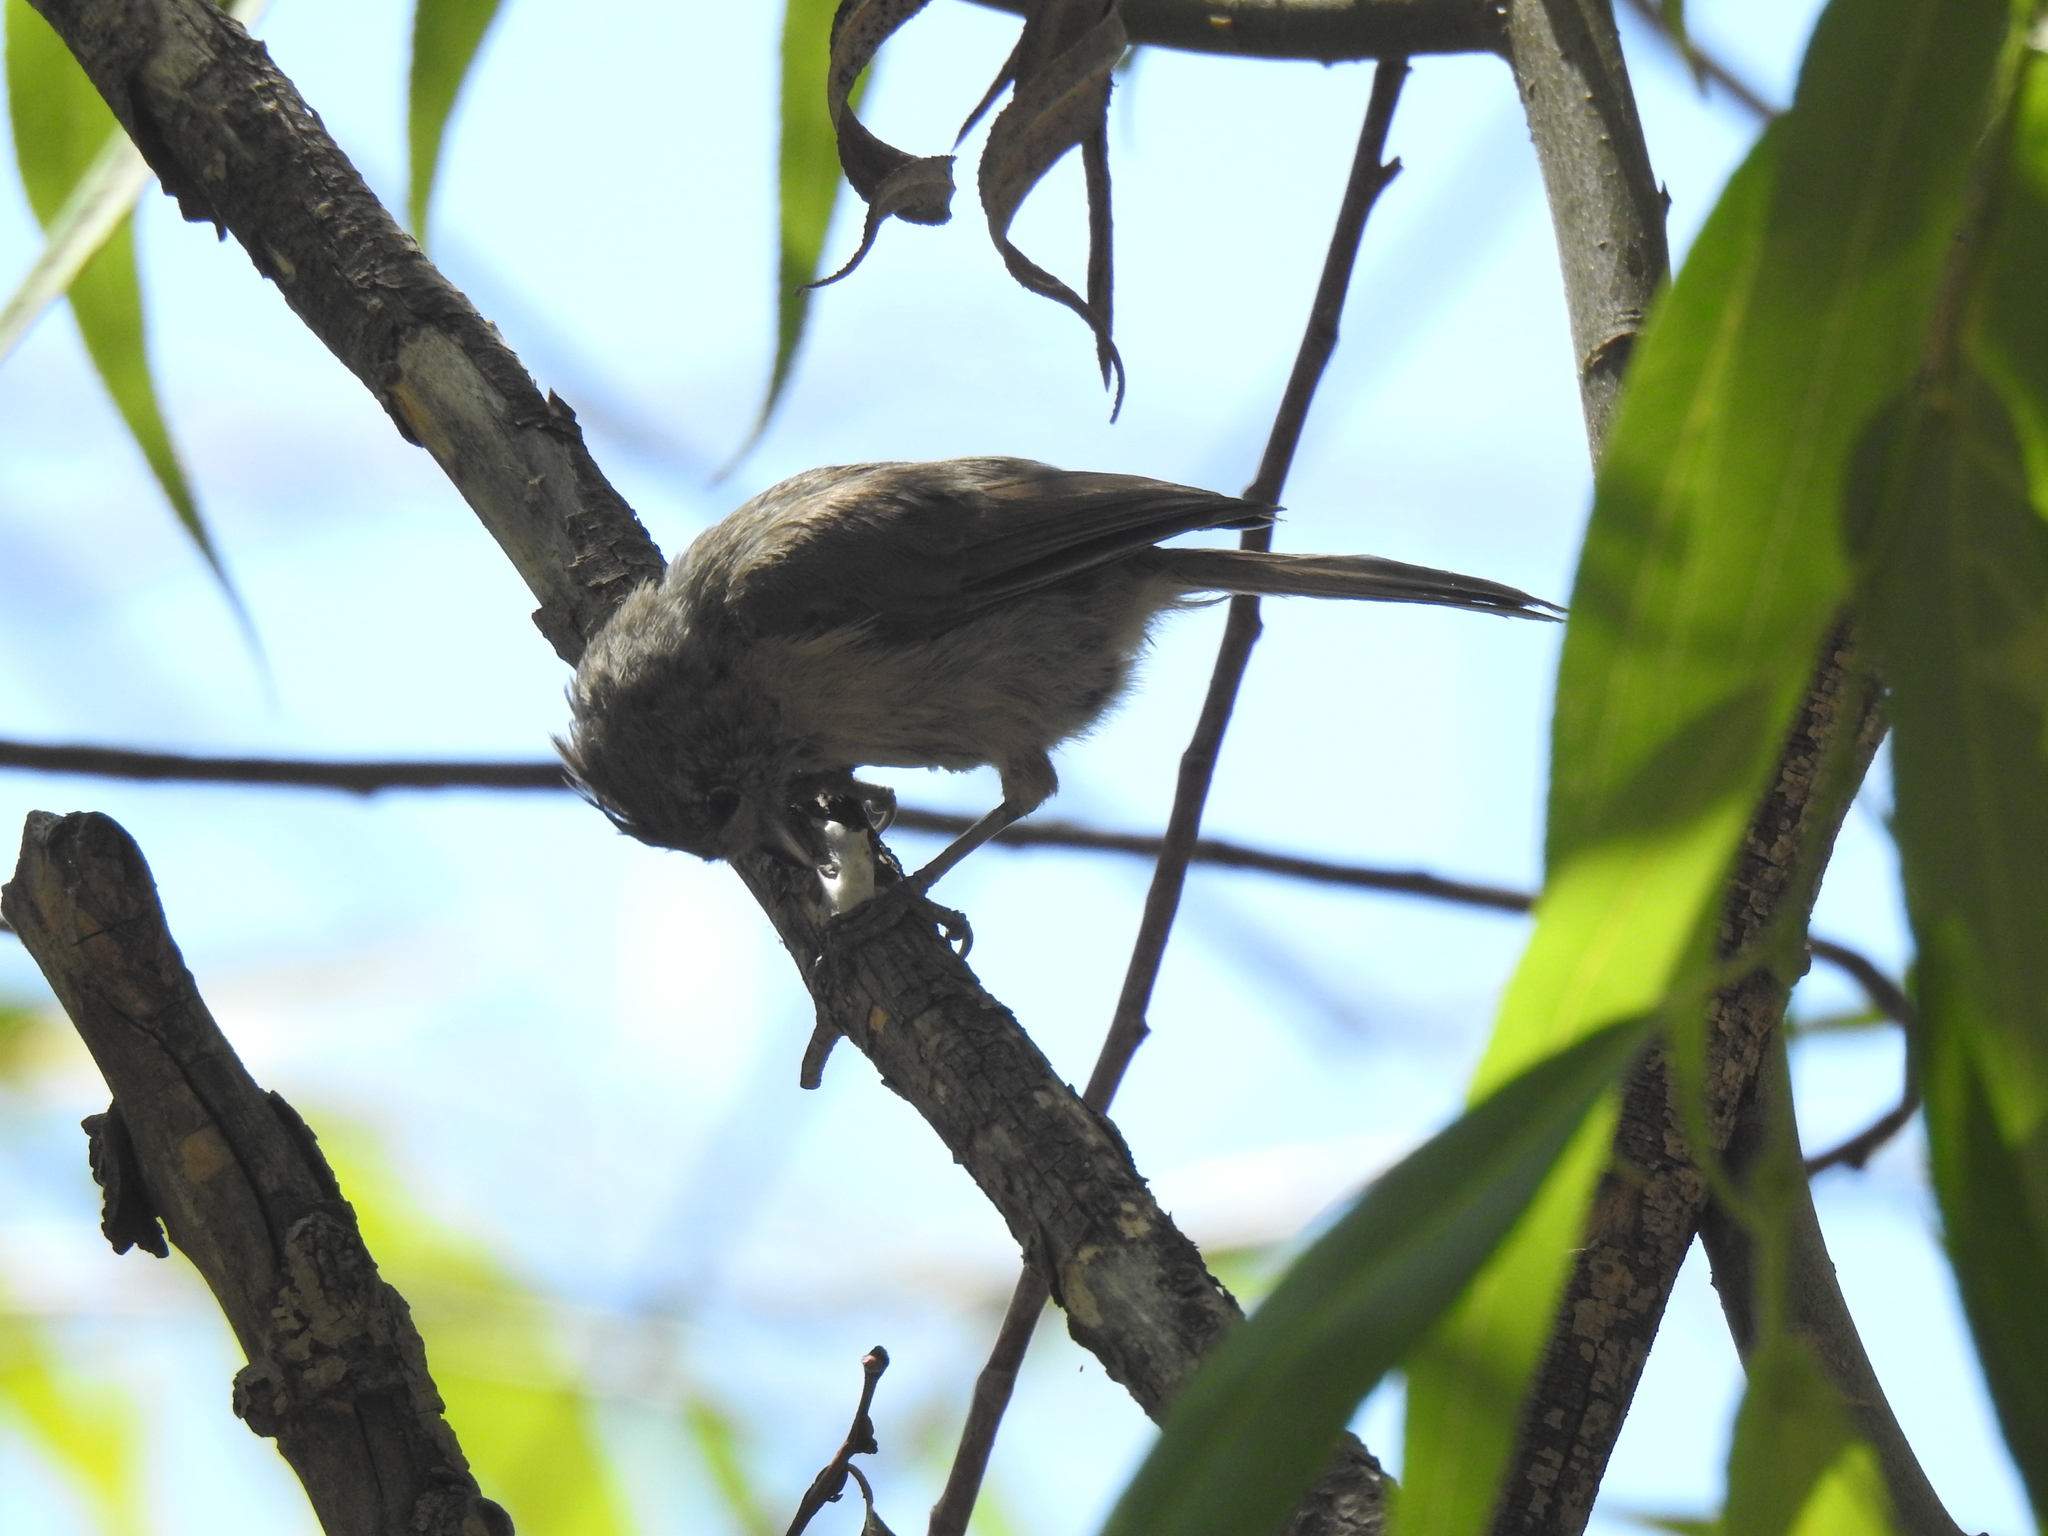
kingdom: Animalia
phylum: Chordata
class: Aves
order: Passeriformes
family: Aegithalidae
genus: Psaltriparus
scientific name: Psaltriparus minimus
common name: American bushtit
